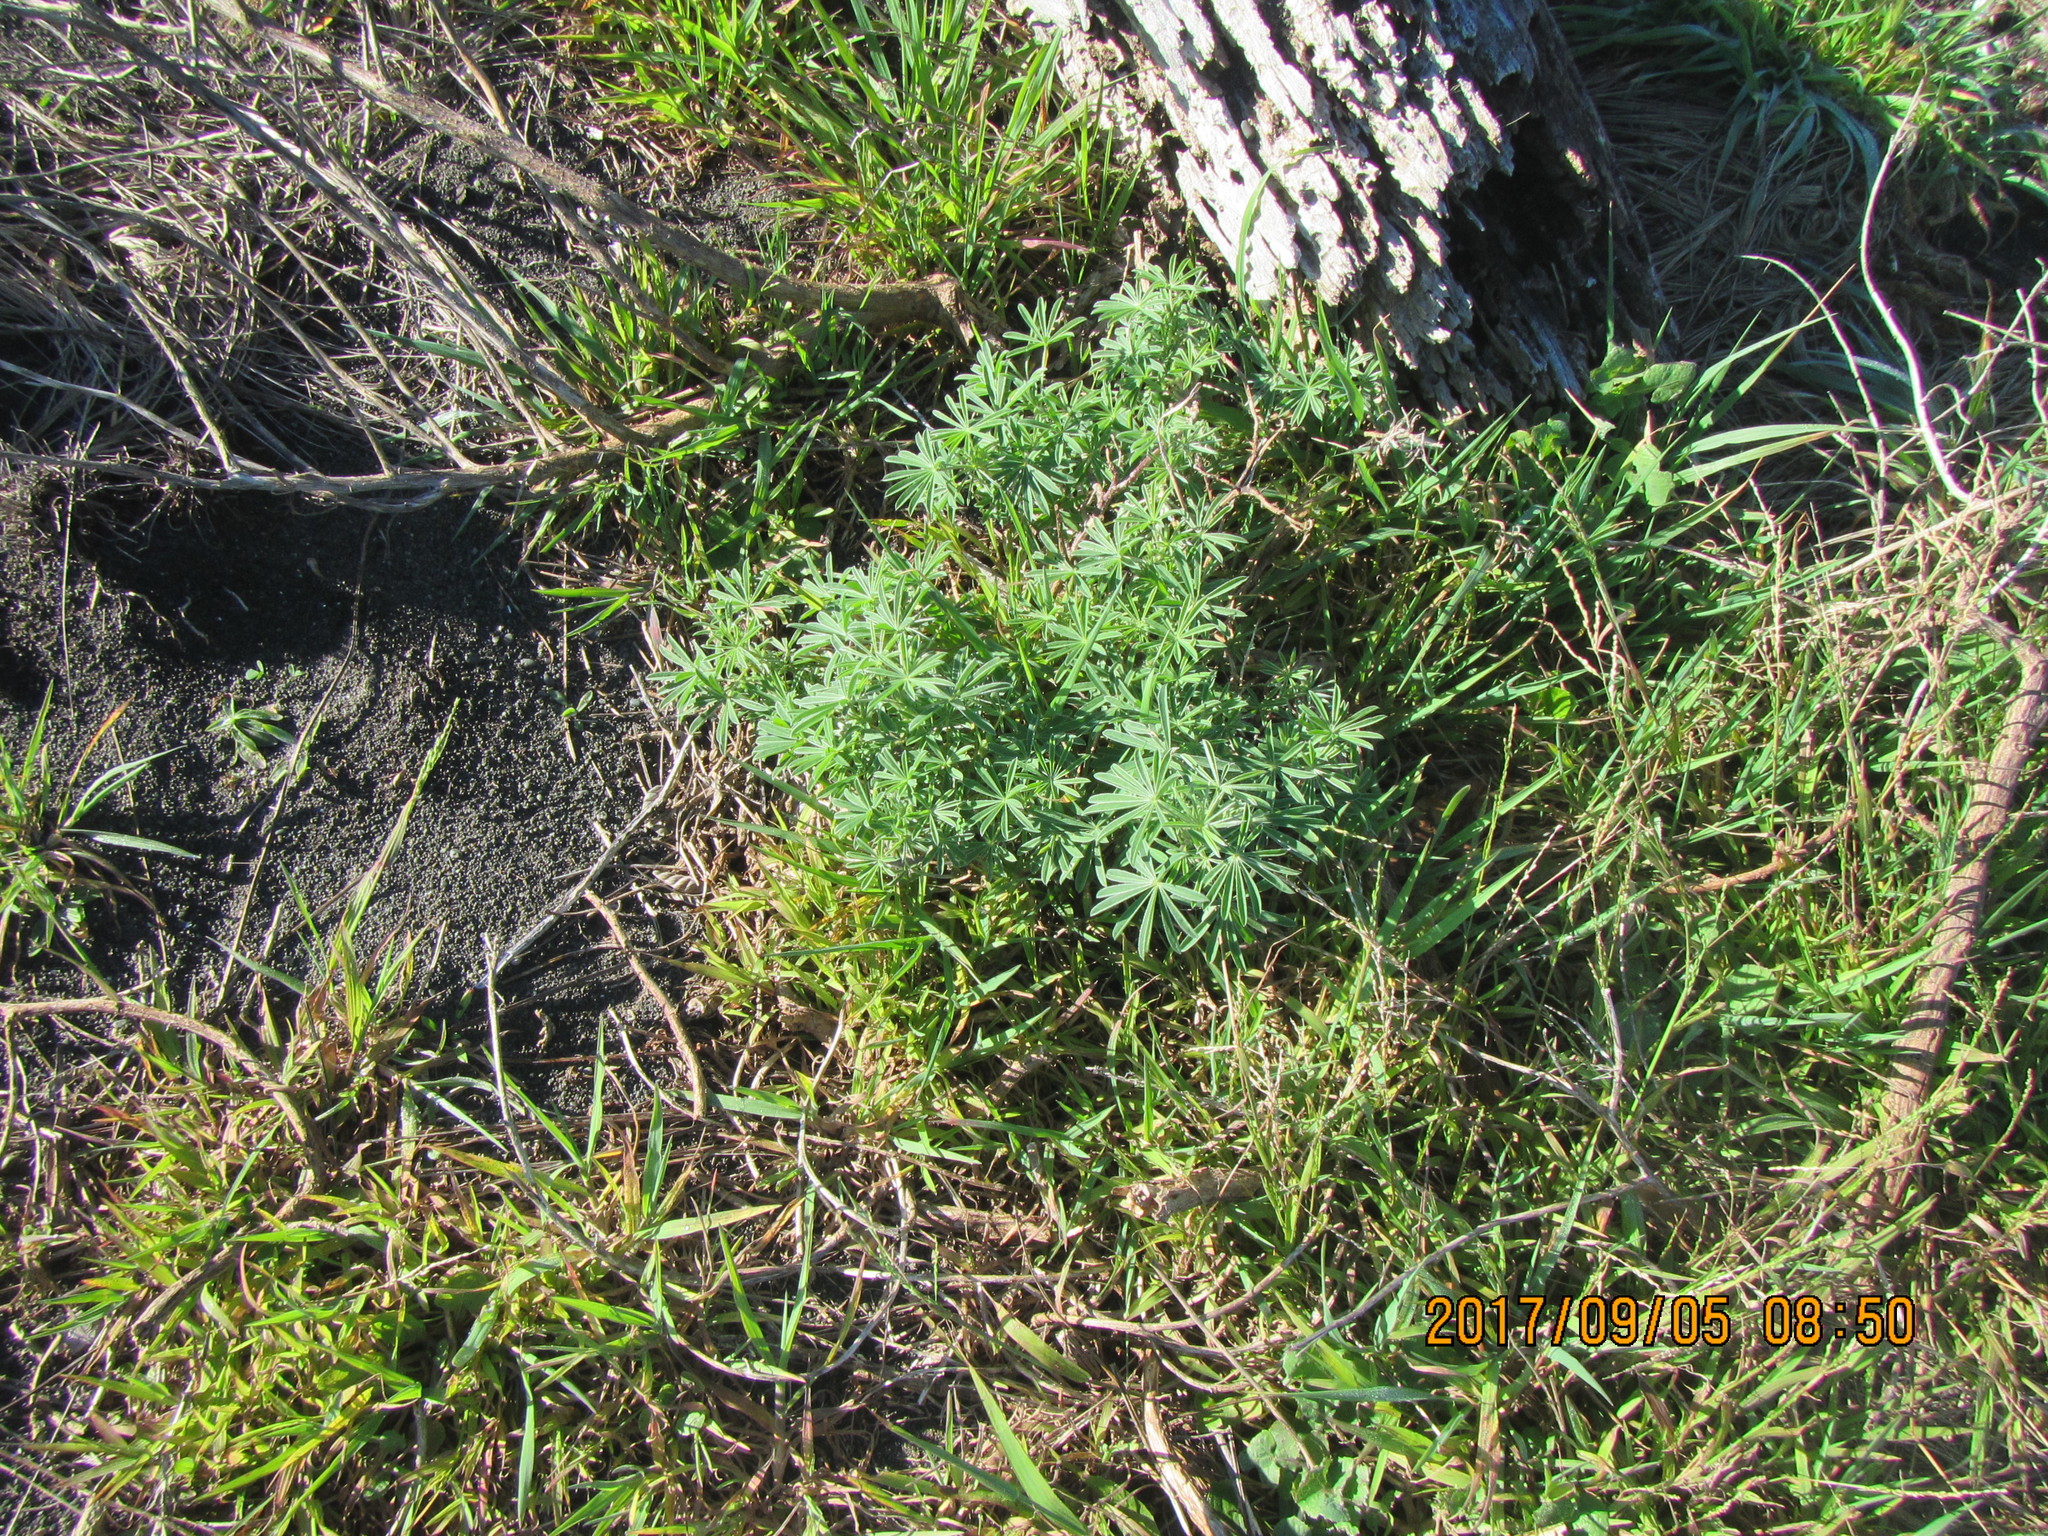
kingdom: Plantae
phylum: Tracheophyta
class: Magnoliopsida
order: Fabales
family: Fabaceae
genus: Lupinus
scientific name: Lupinus arboreus
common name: Yellow bush lupine
